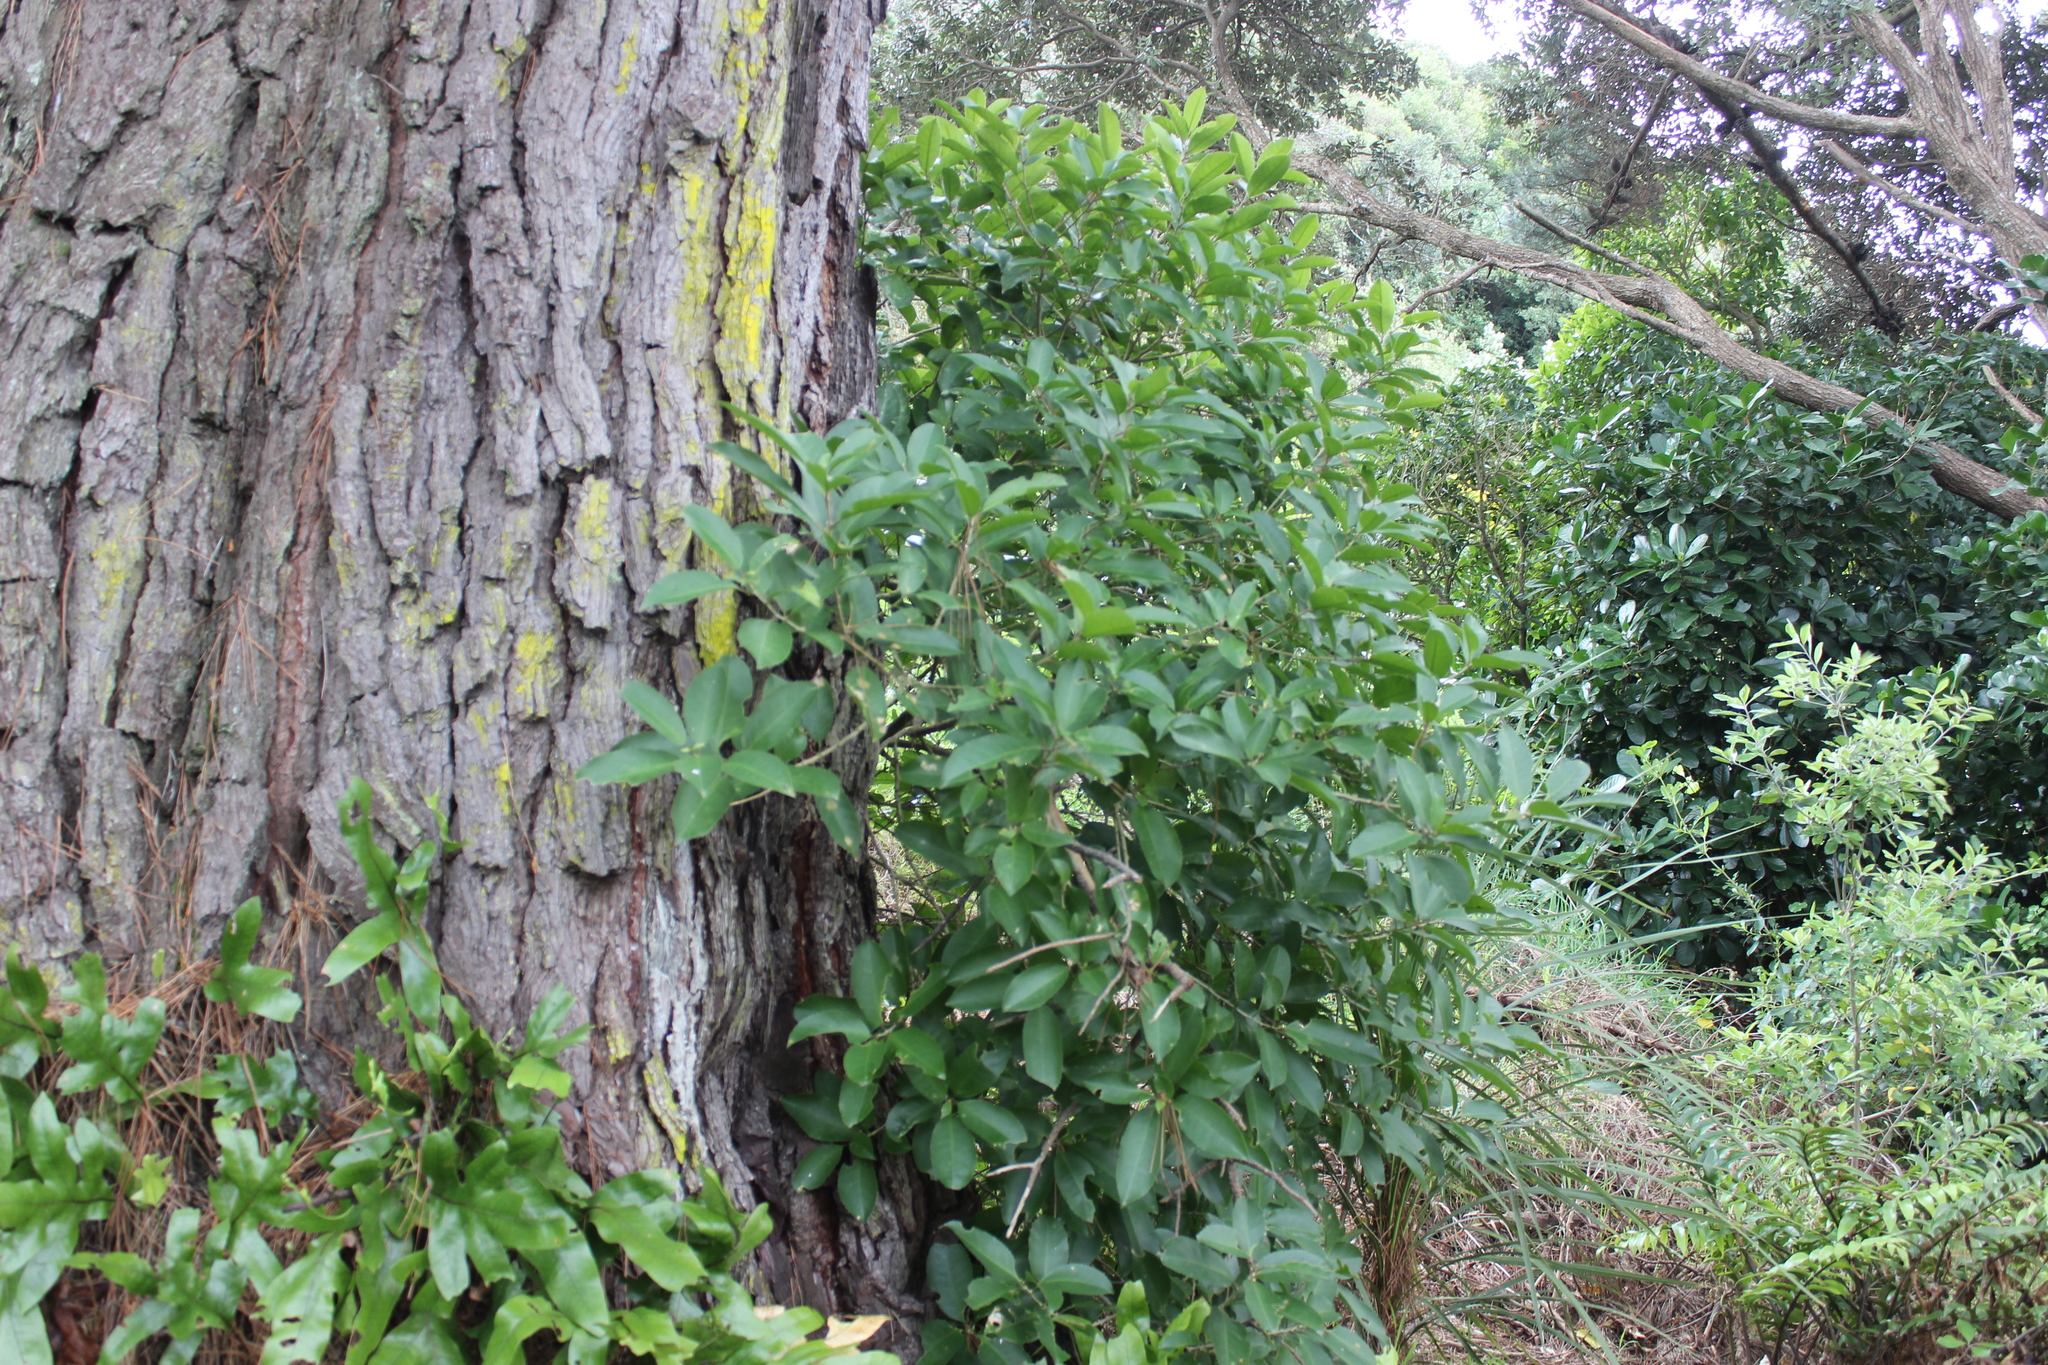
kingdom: Plantae
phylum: Tracheophyta
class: Magnoliopsida
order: Malpighiales
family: Violaceae
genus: Melicytus
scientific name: Melicytus ramiflorus
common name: Mahoe
